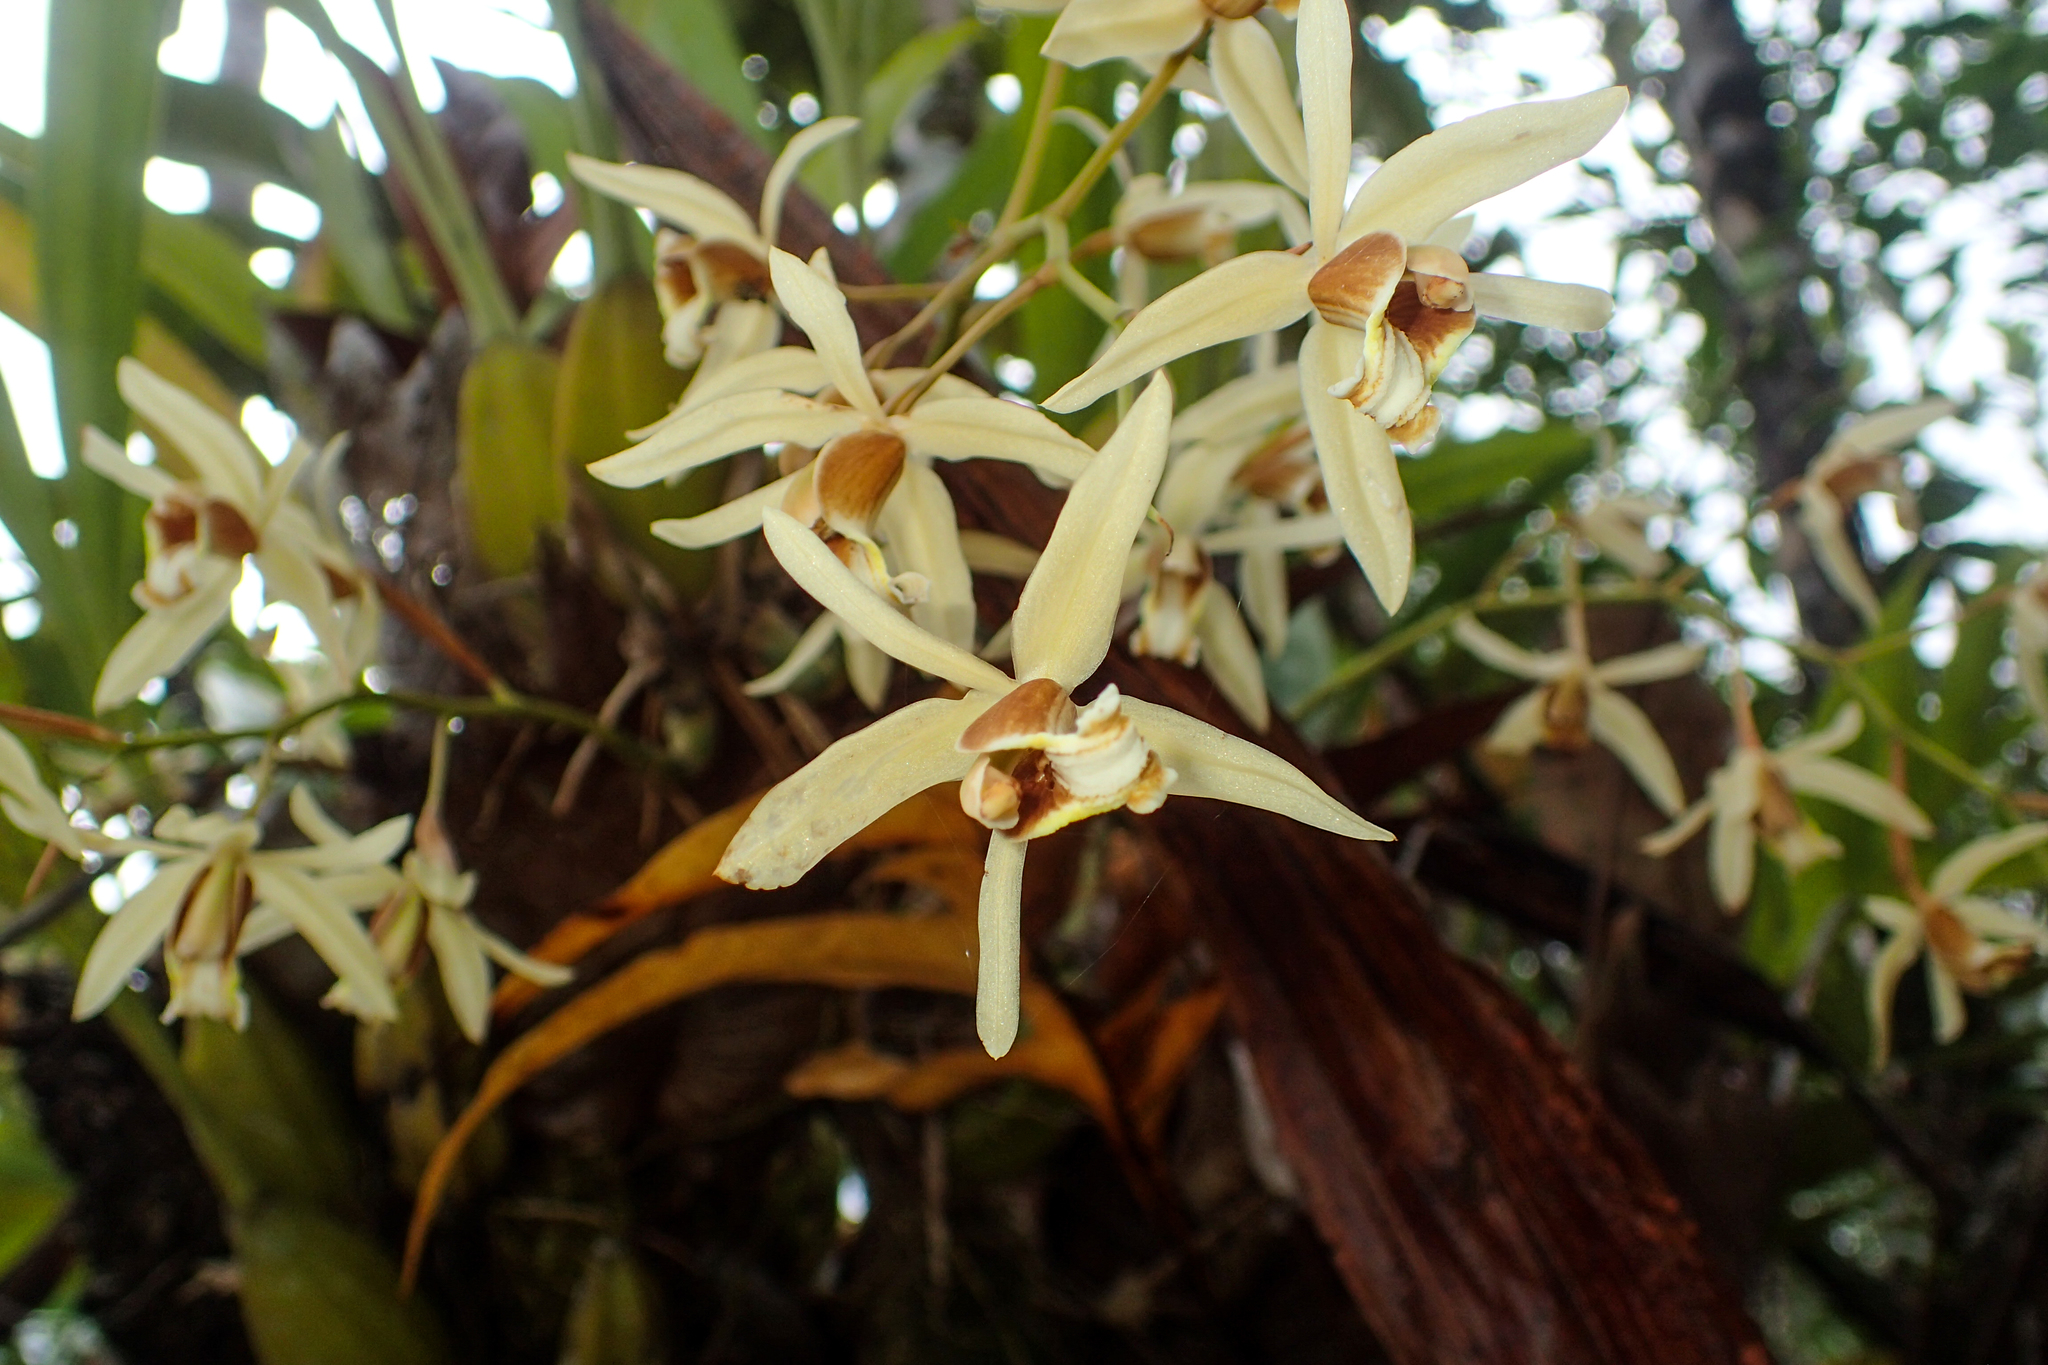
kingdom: Plantae
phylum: Tracheophyta
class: Liliopsida
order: Asparagales
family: Orchidaceae
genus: Coelogyne
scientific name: Coelogyne trinervis
